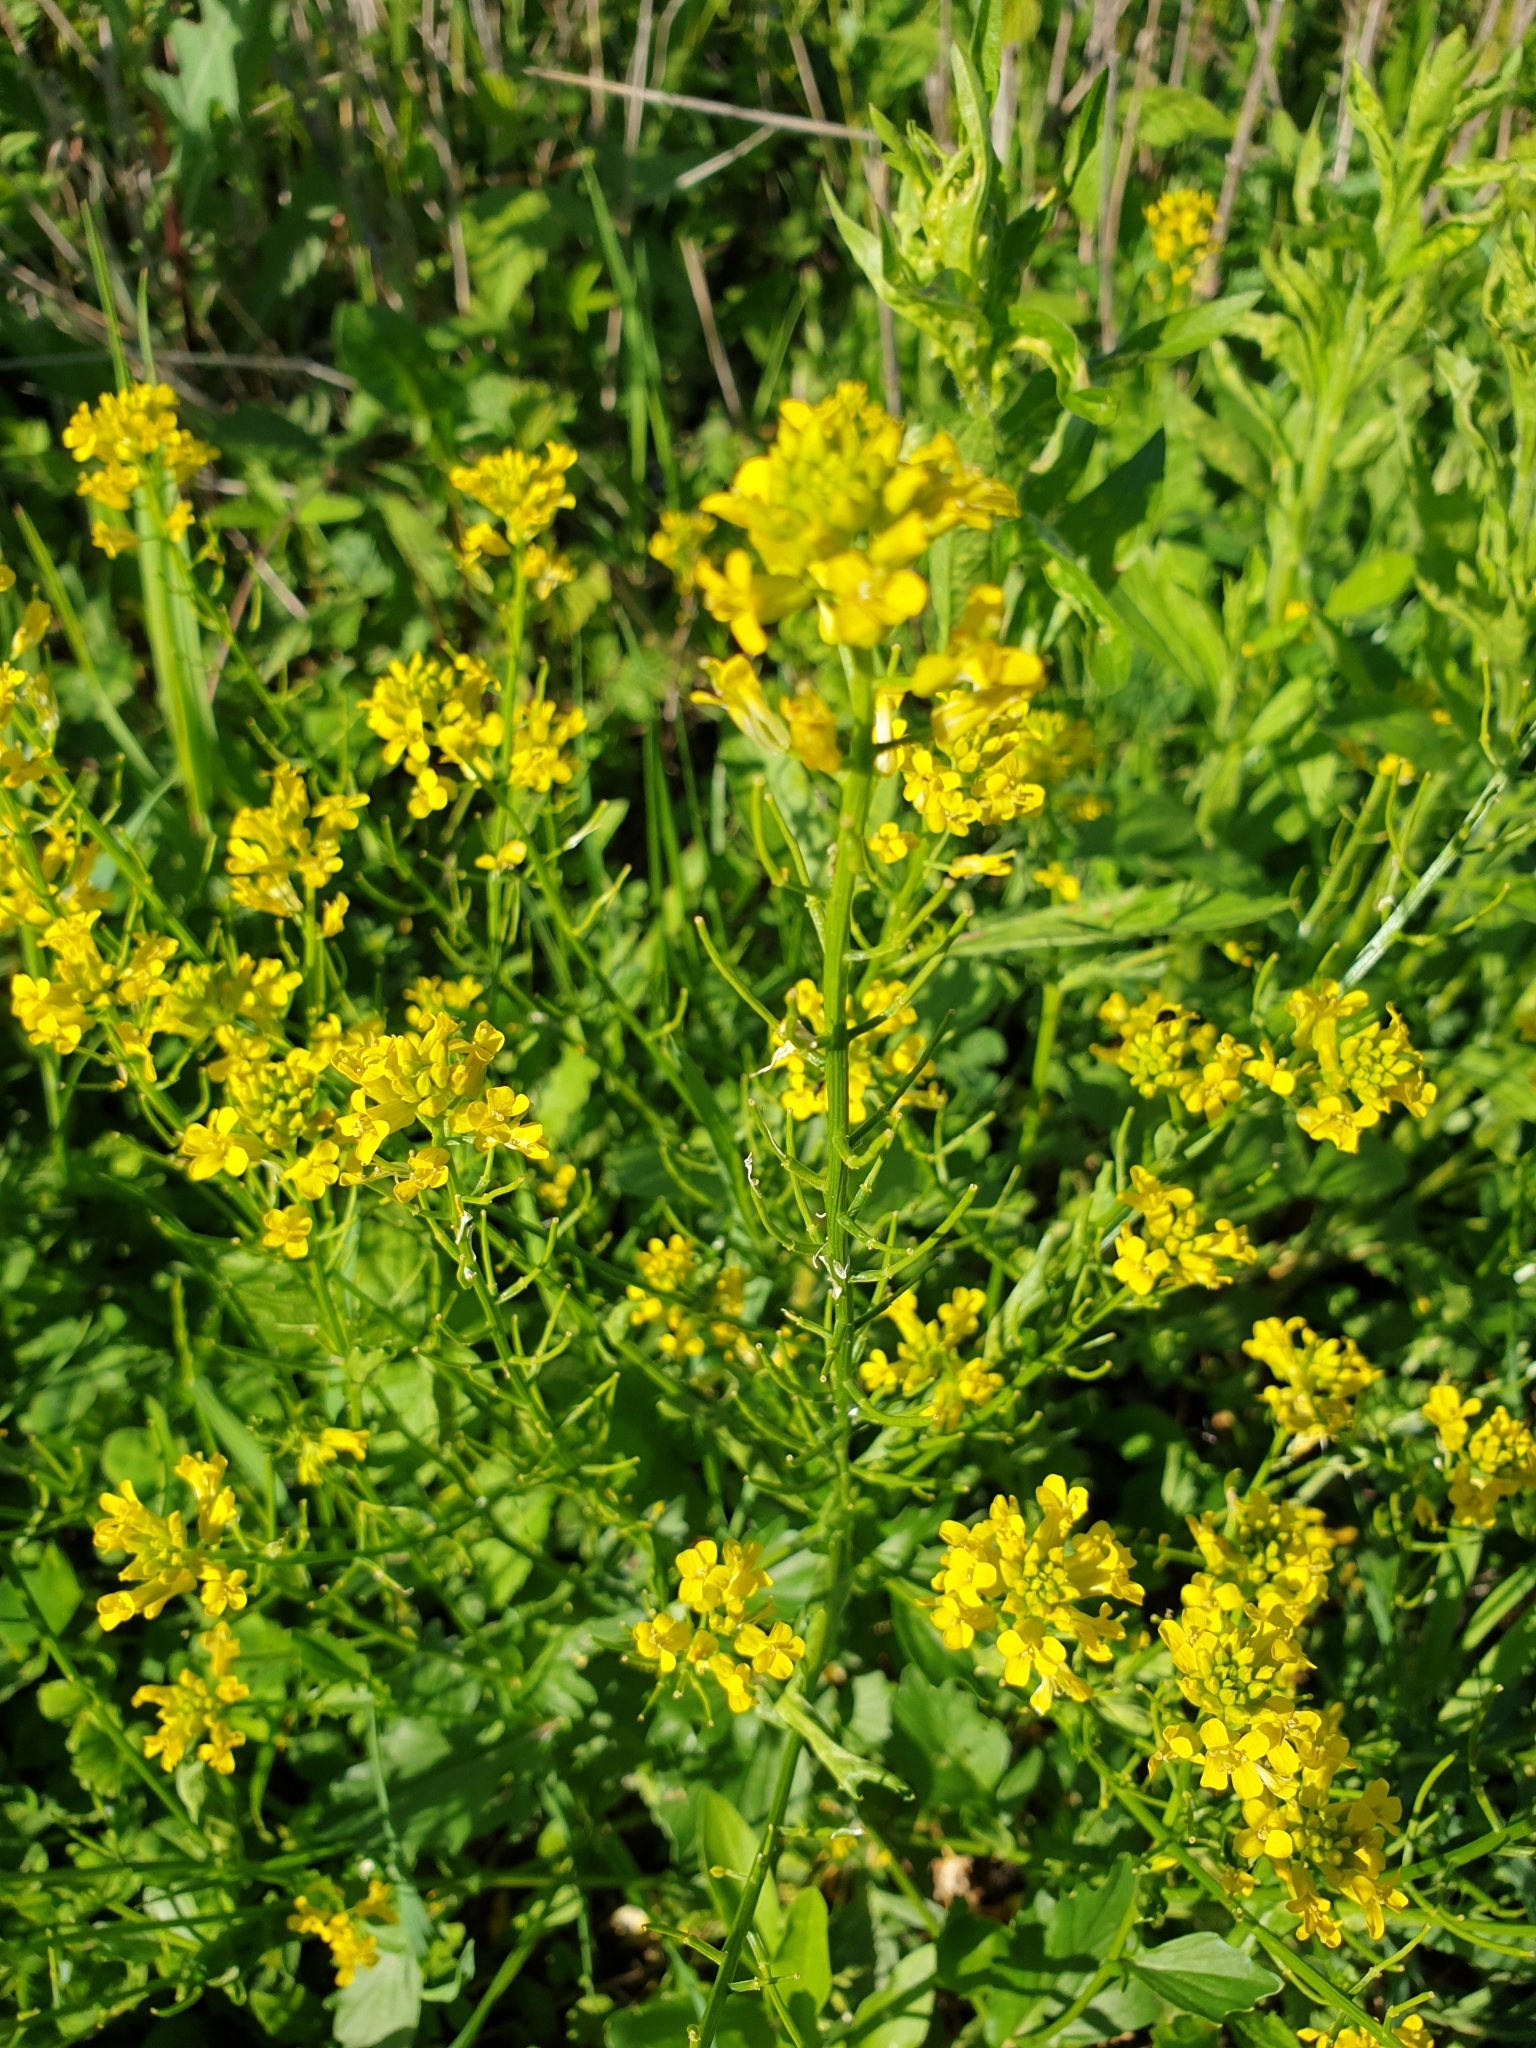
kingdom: Plantae
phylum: Tracheophyta
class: Magnoliopsida
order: Brassicales
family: Brassicaceae
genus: Barbarea
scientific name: Barbarea vulgaris
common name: Cressy-greens
